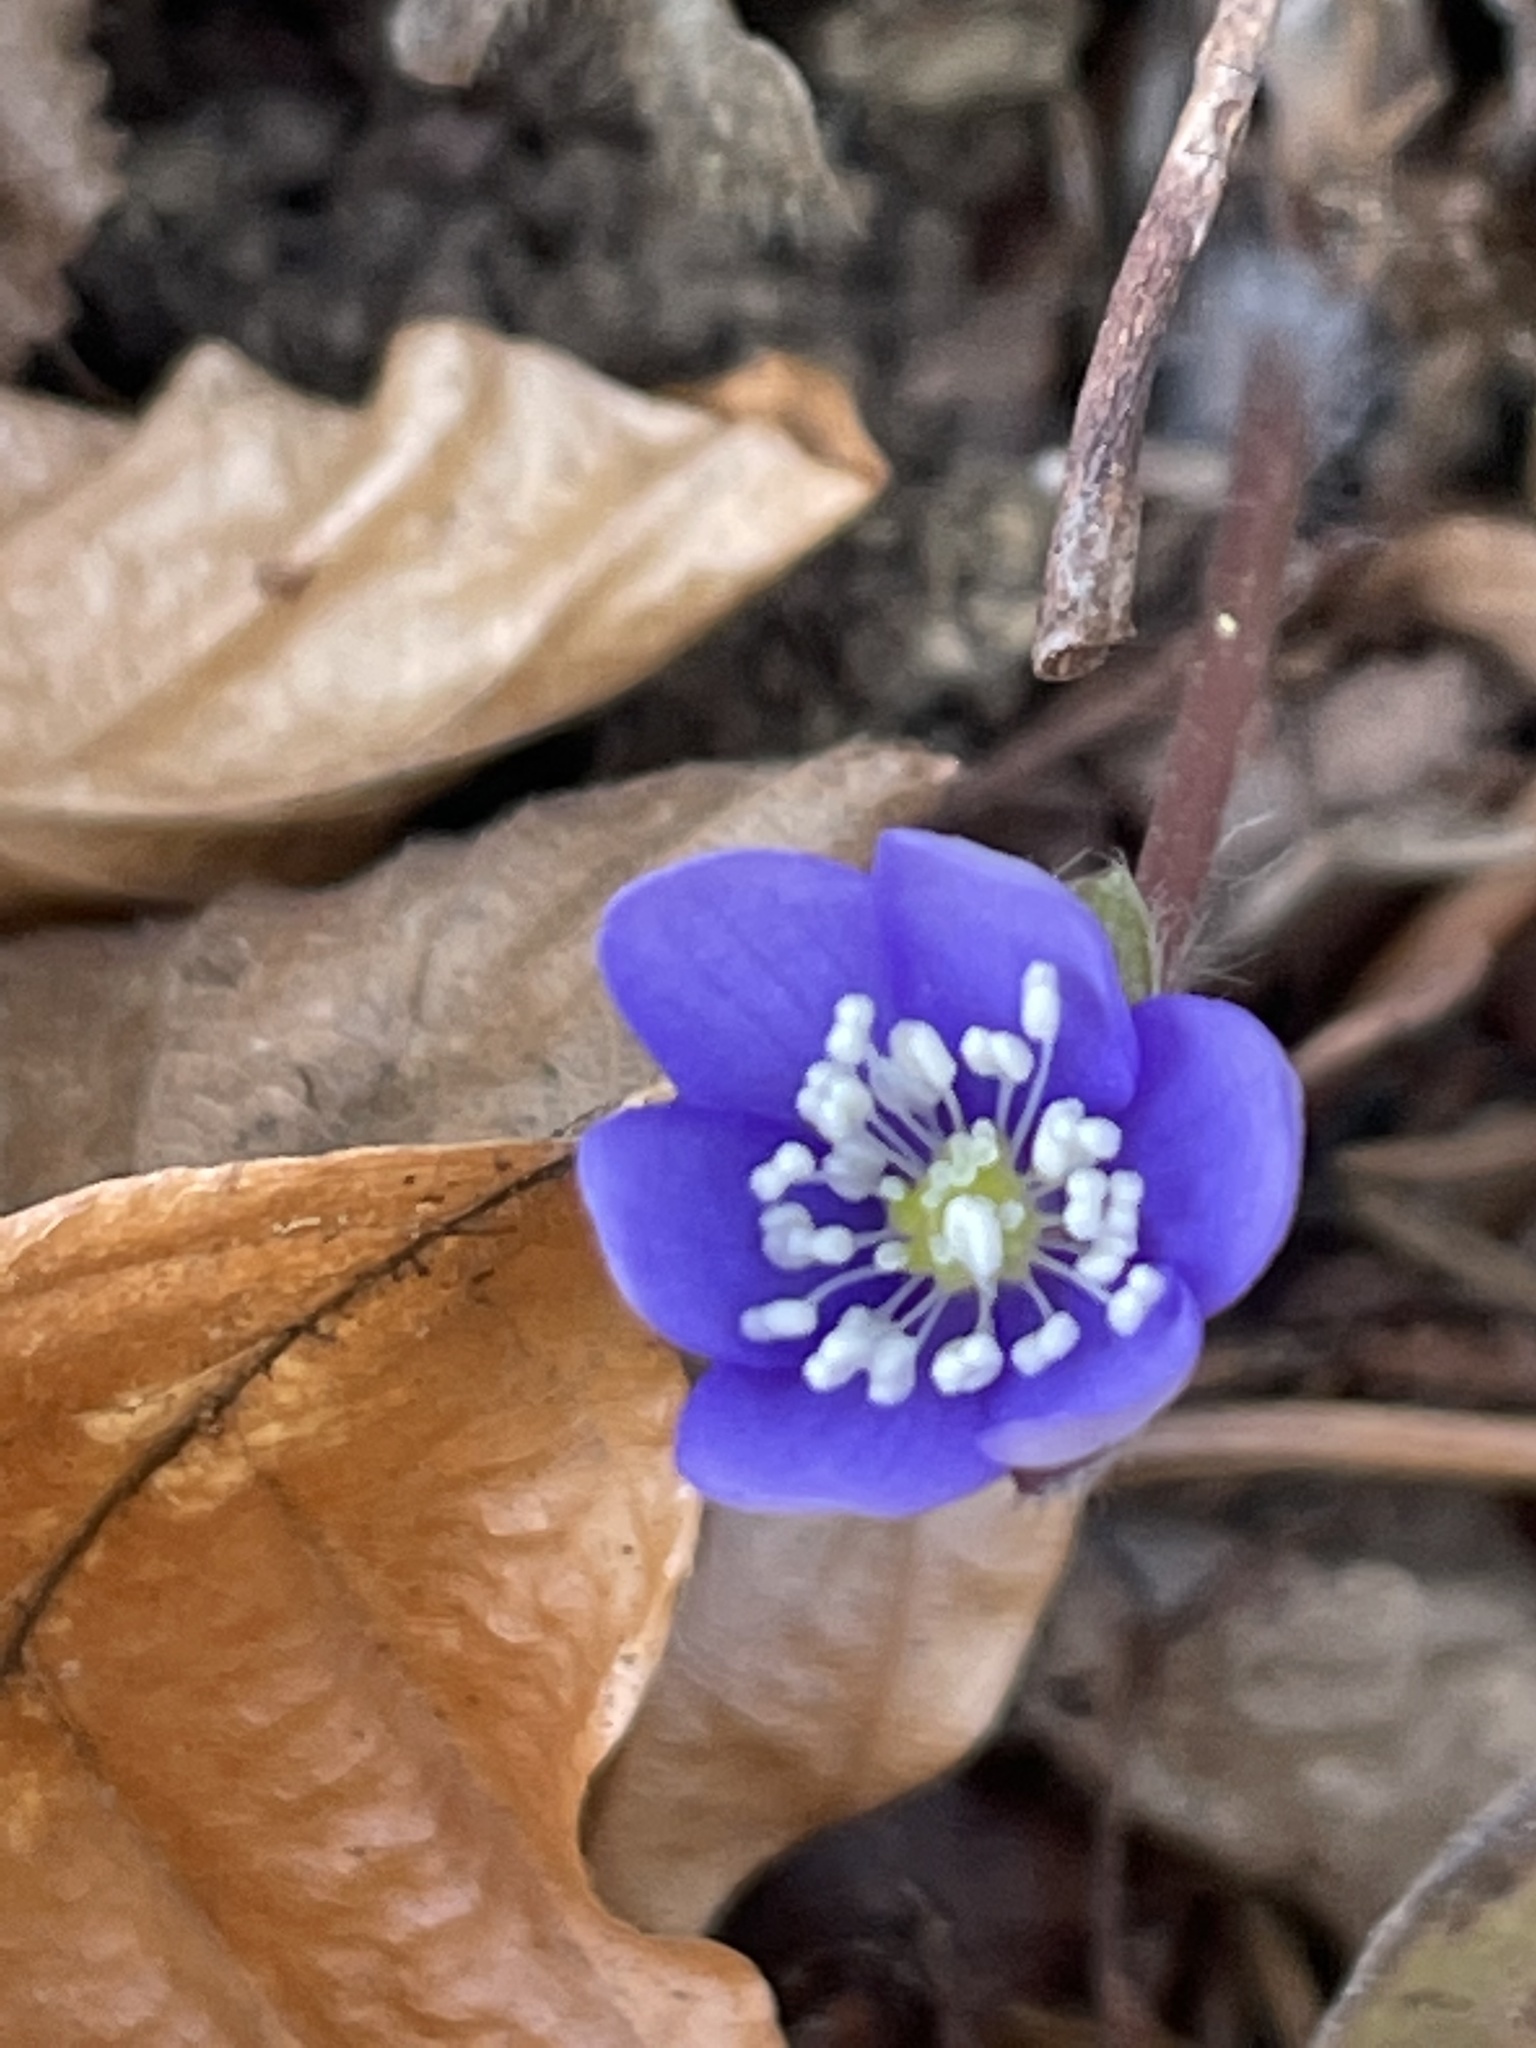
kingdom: Plantae
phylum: Tracheophyta
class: Magnoliopsida
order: Ranunculales
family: Ranunculaceae
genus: Hepatica
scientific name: Hepatica nobilis
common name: Liverleaf
